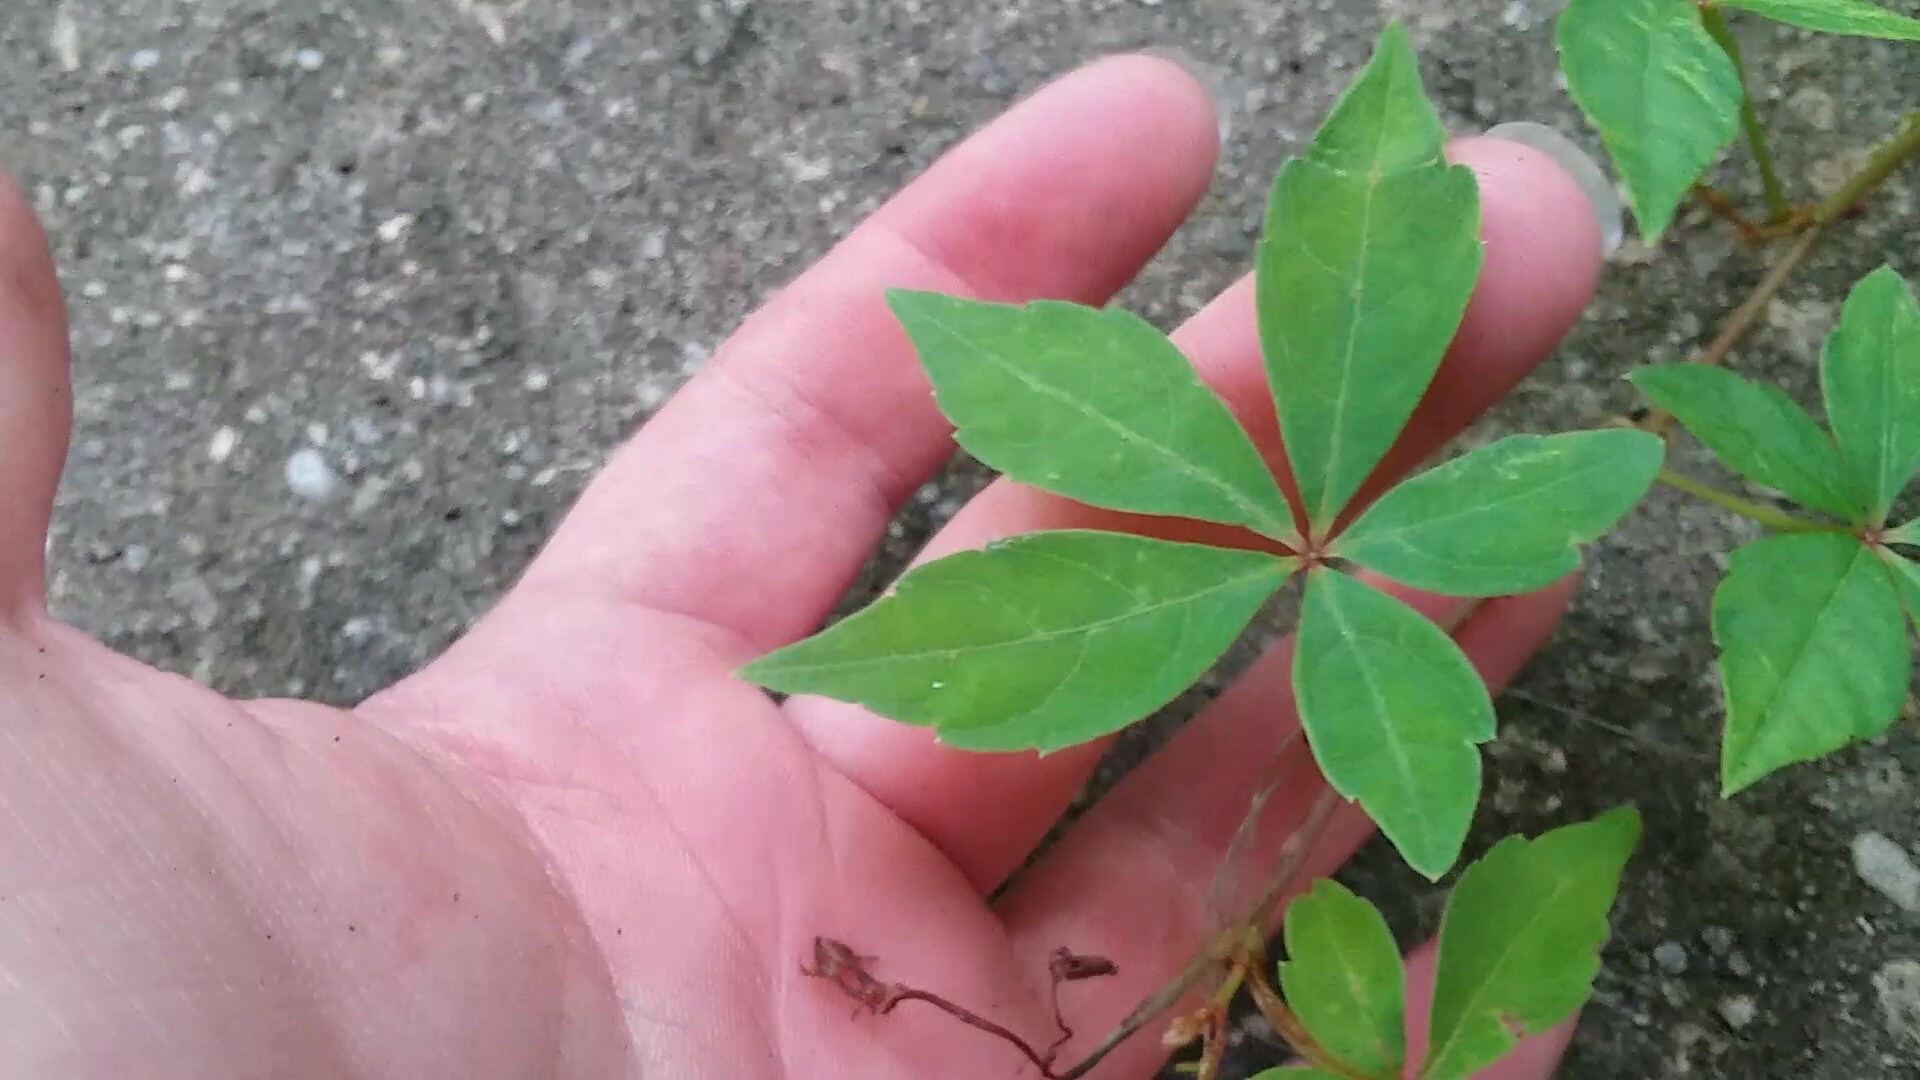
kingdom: Plantae
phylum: Tracheophyta
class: Magnoliopsida
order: Vitales
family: Vitaceae
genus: Parthenocissus
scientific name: Parthenocissus quinquefolia
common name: Virginia-creeper
